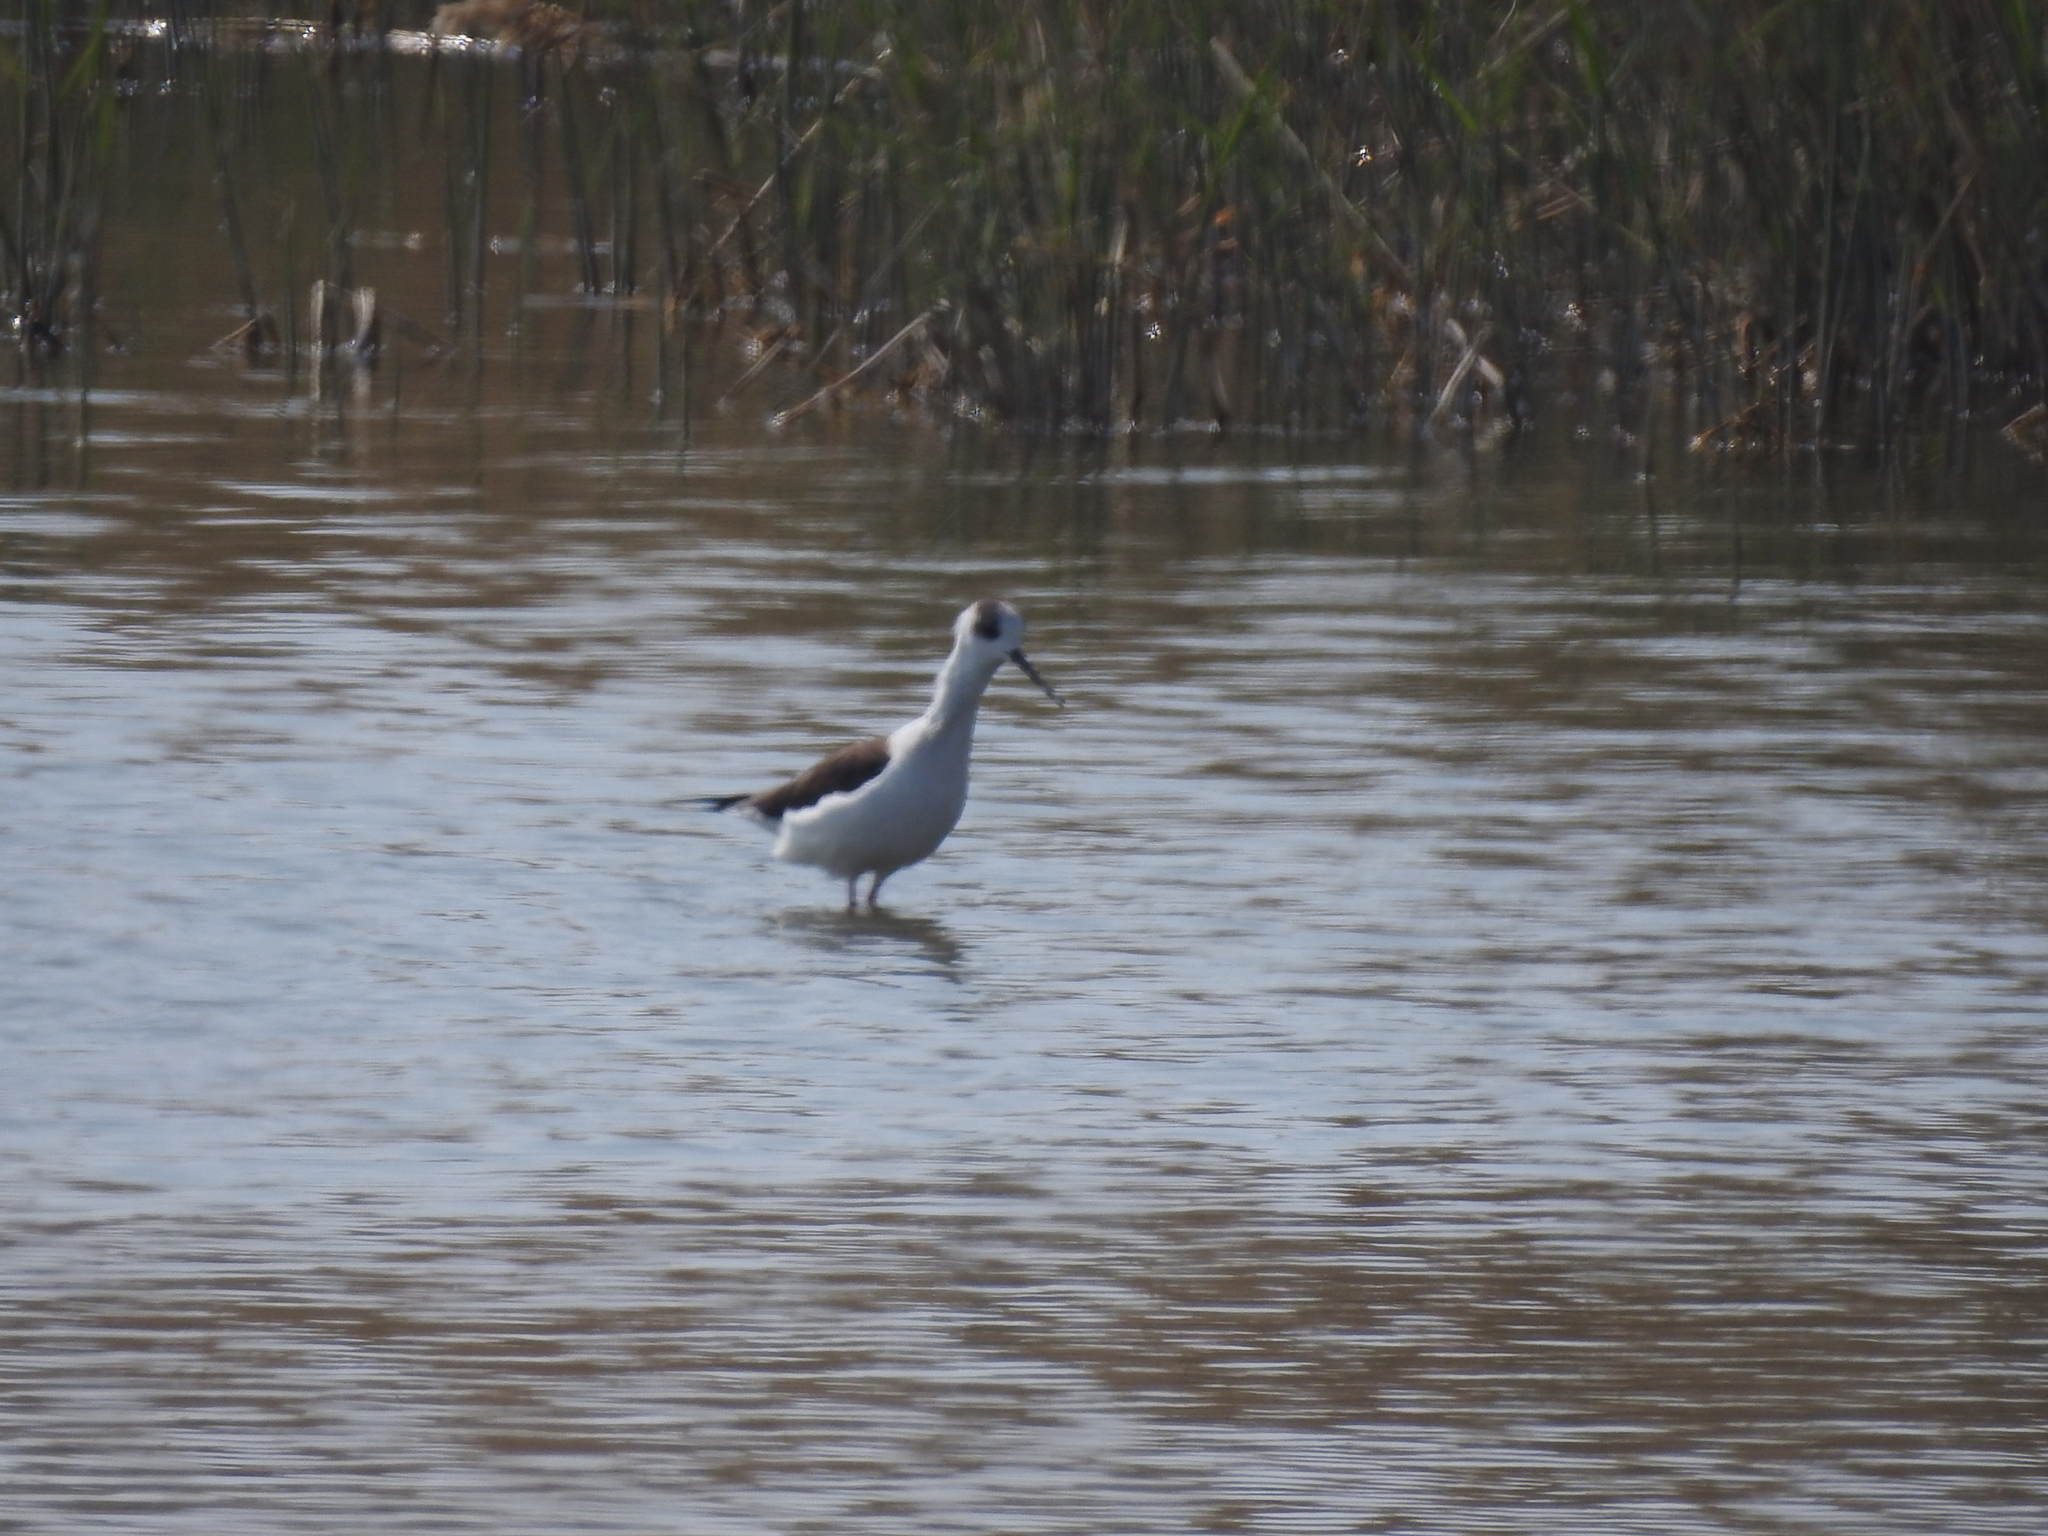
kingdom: Animalia
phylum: Chordata
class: Aves
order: Charadriiformes
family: Recurvirostridae
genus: Himantopus
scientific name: Himantopus himantopus
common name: Black-winged stilt
